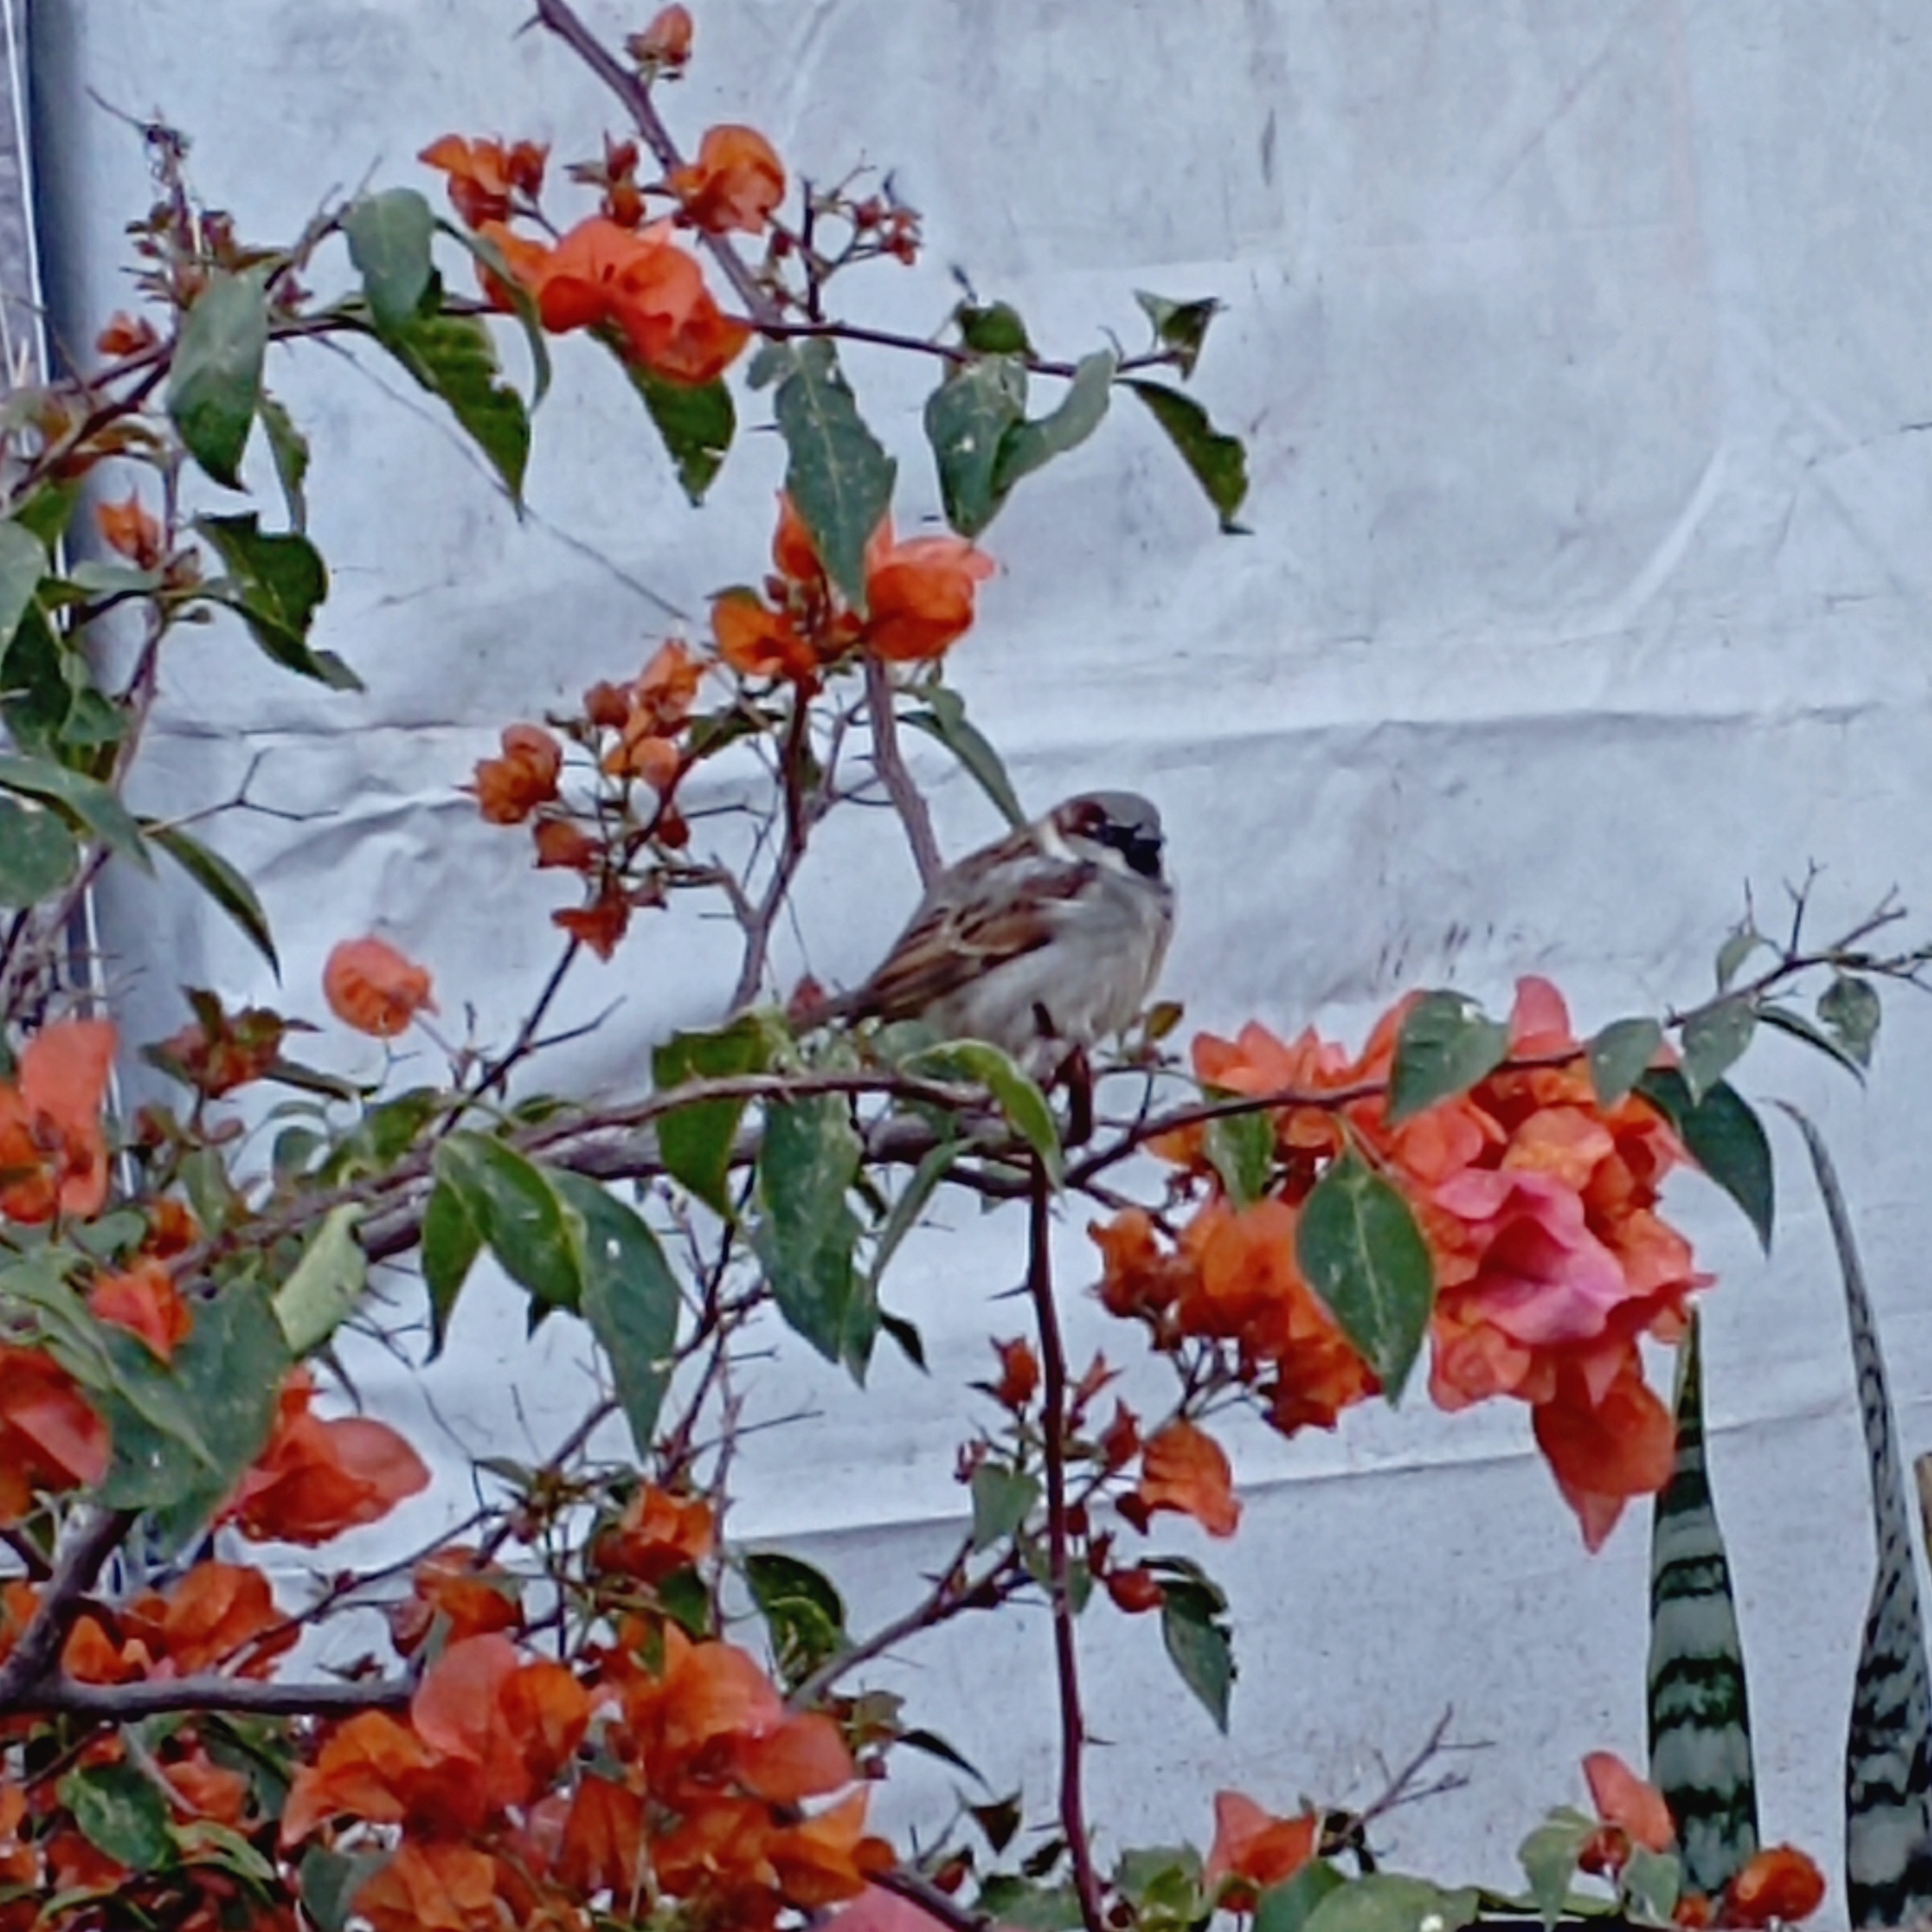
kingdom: Animalia
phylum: Chordata
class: Aves
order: Passeriformes
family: Passeridae
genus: Passer
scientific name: Passer domesticus
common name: House sparrow
